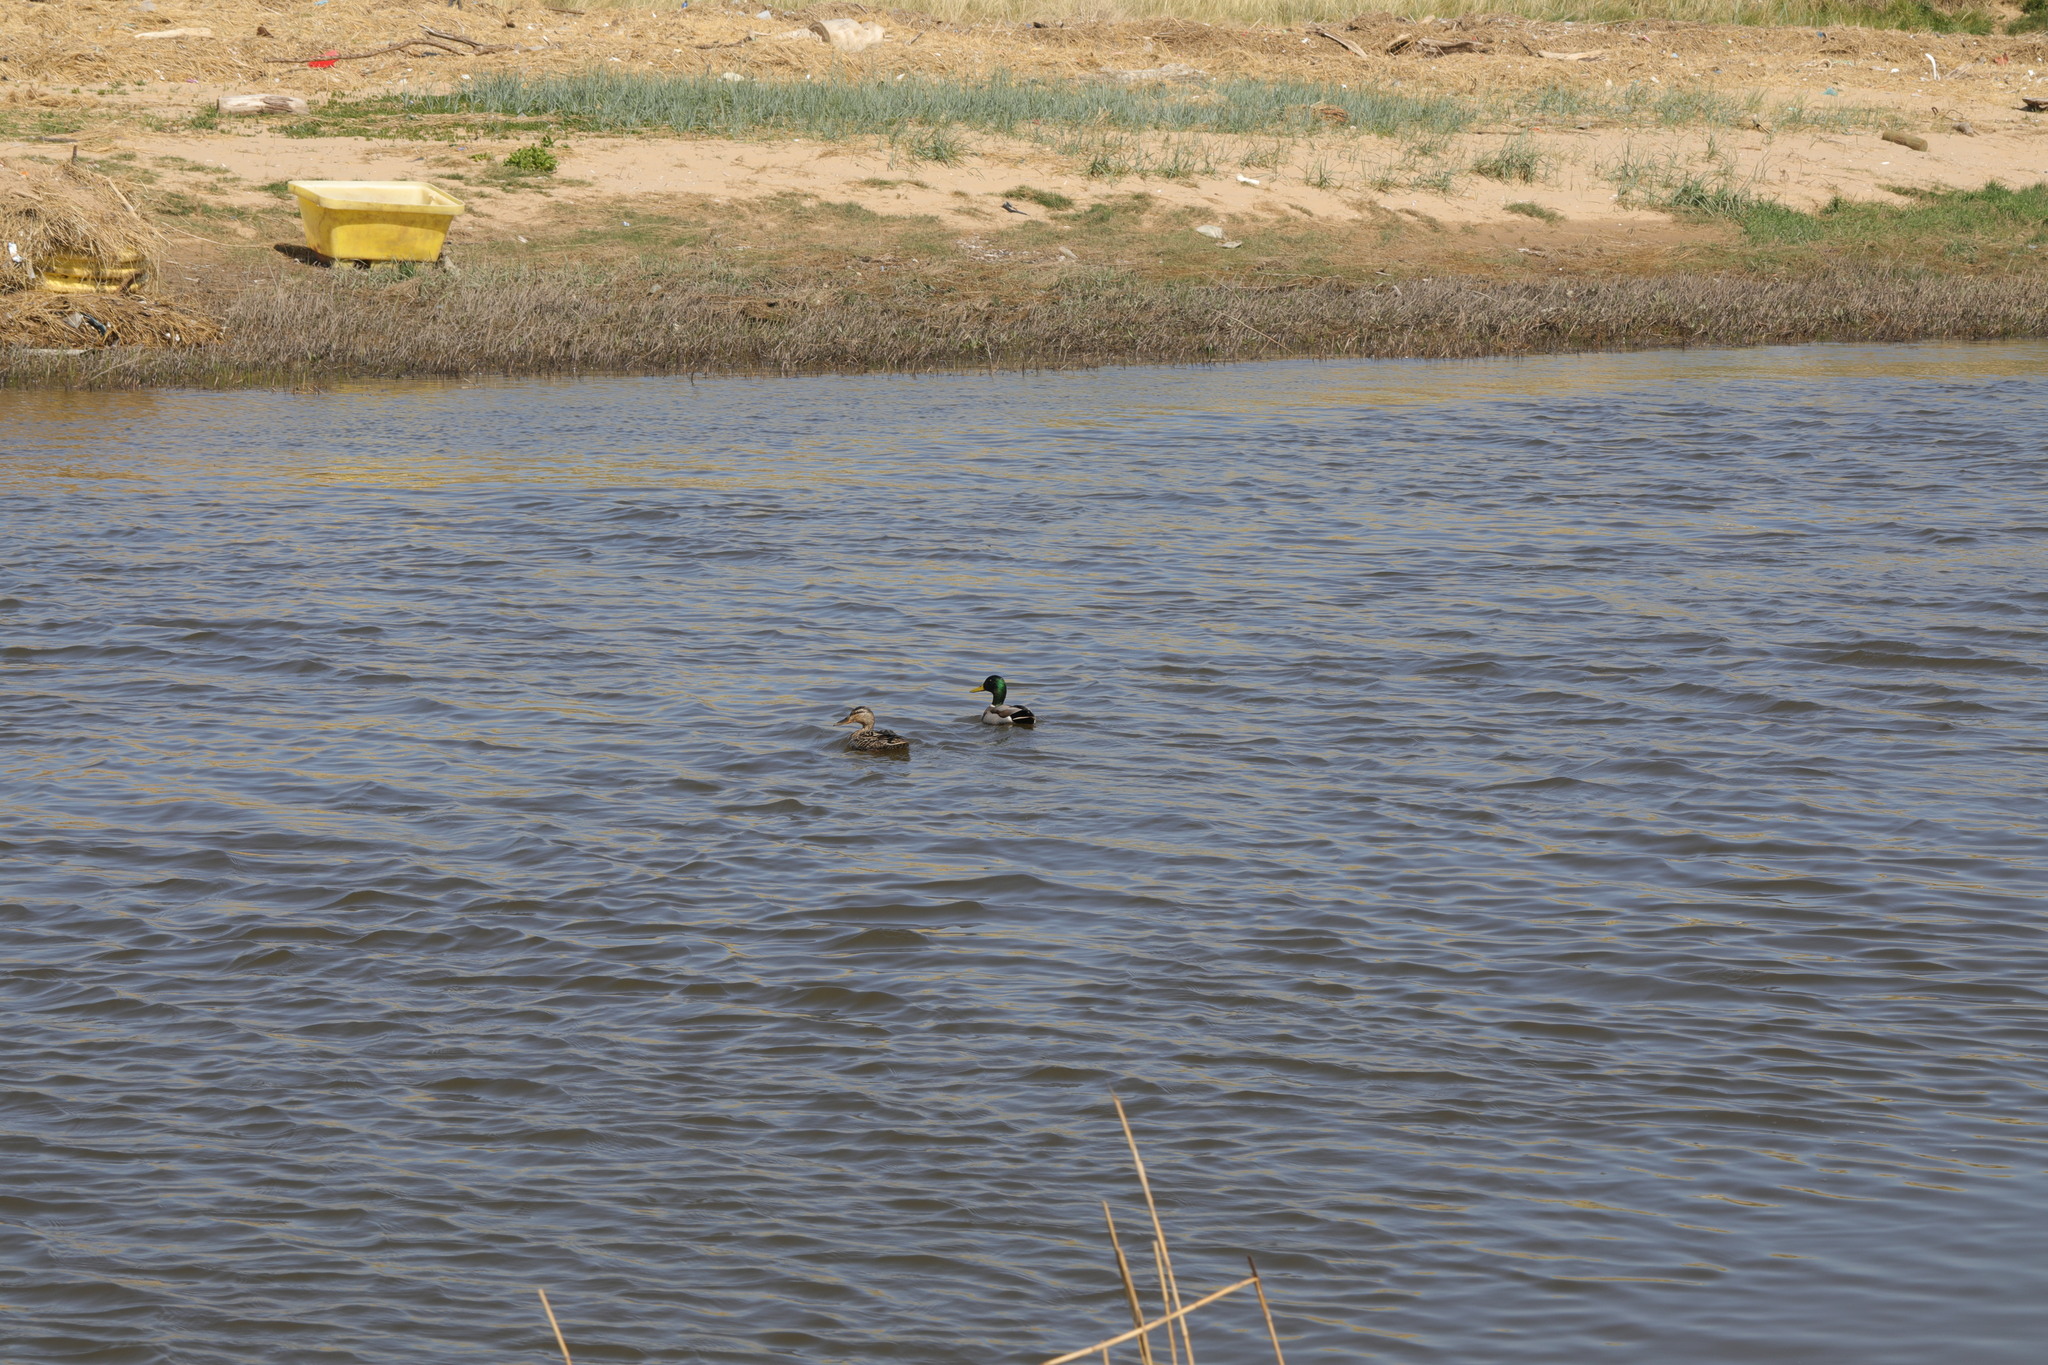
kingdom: Animalia
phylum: Chordata
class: Aves
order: Anseriformes
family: Anatidae
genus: Anas
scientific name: Anas platyrhynchos
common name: Mallard
